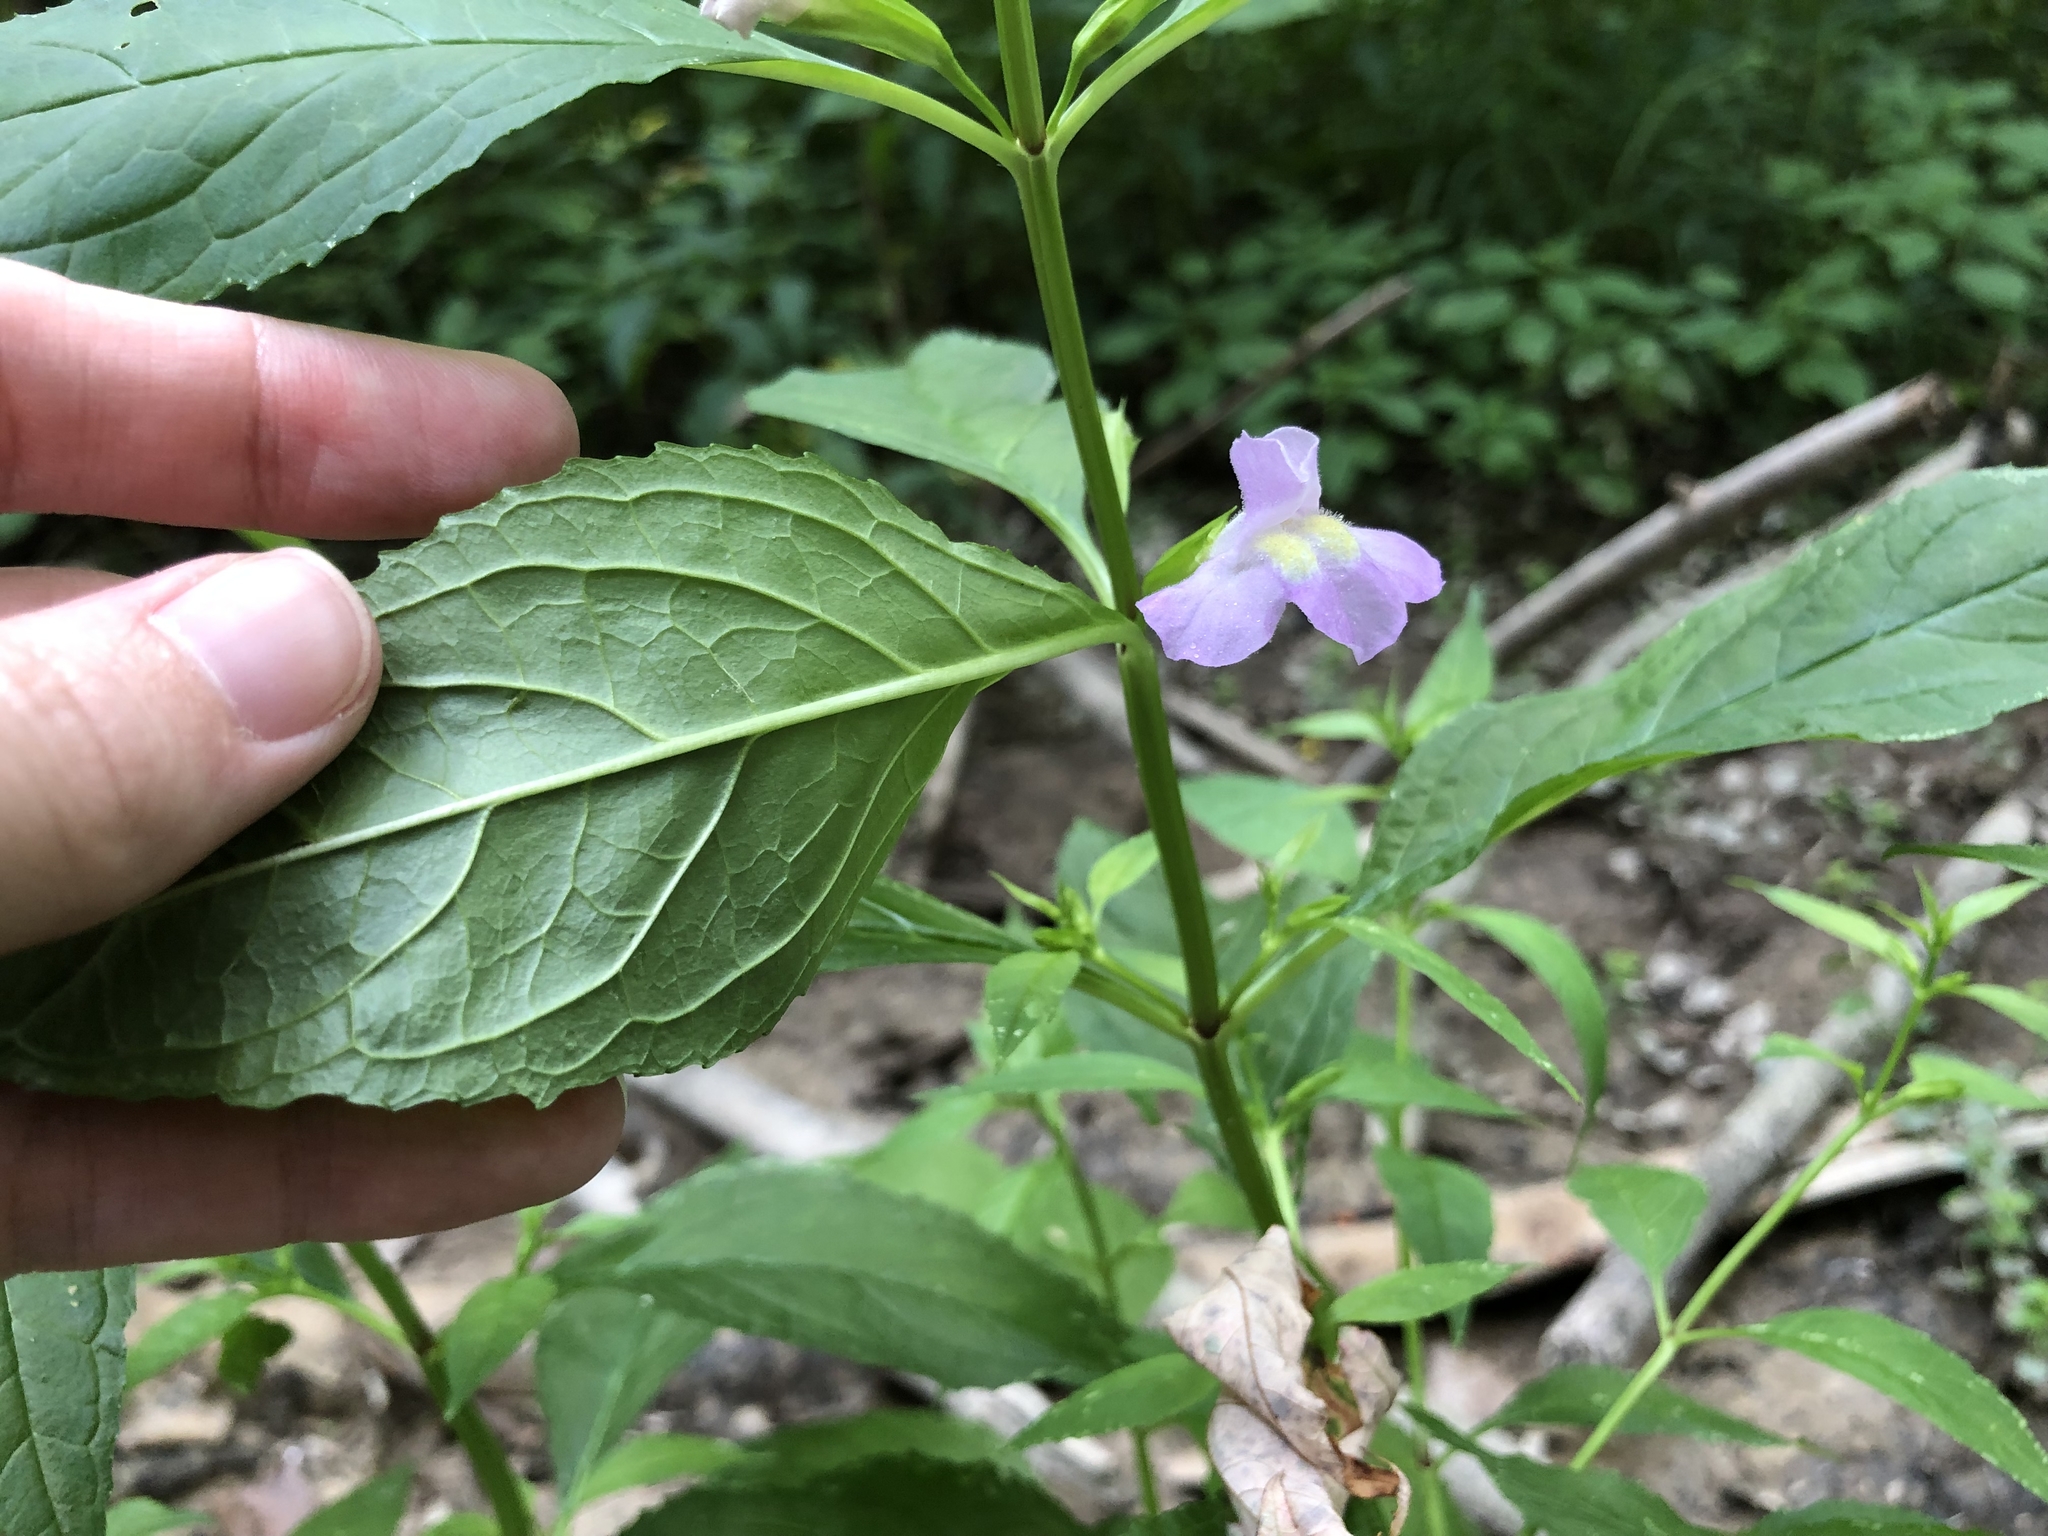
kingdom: Plantae
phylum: Tracheophyta
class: Magnoliopsida
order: Lamiales
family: Phrymaceae
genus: Mimulus
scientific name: Mimulus alatus
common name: Sharp-wing monkey-flower
